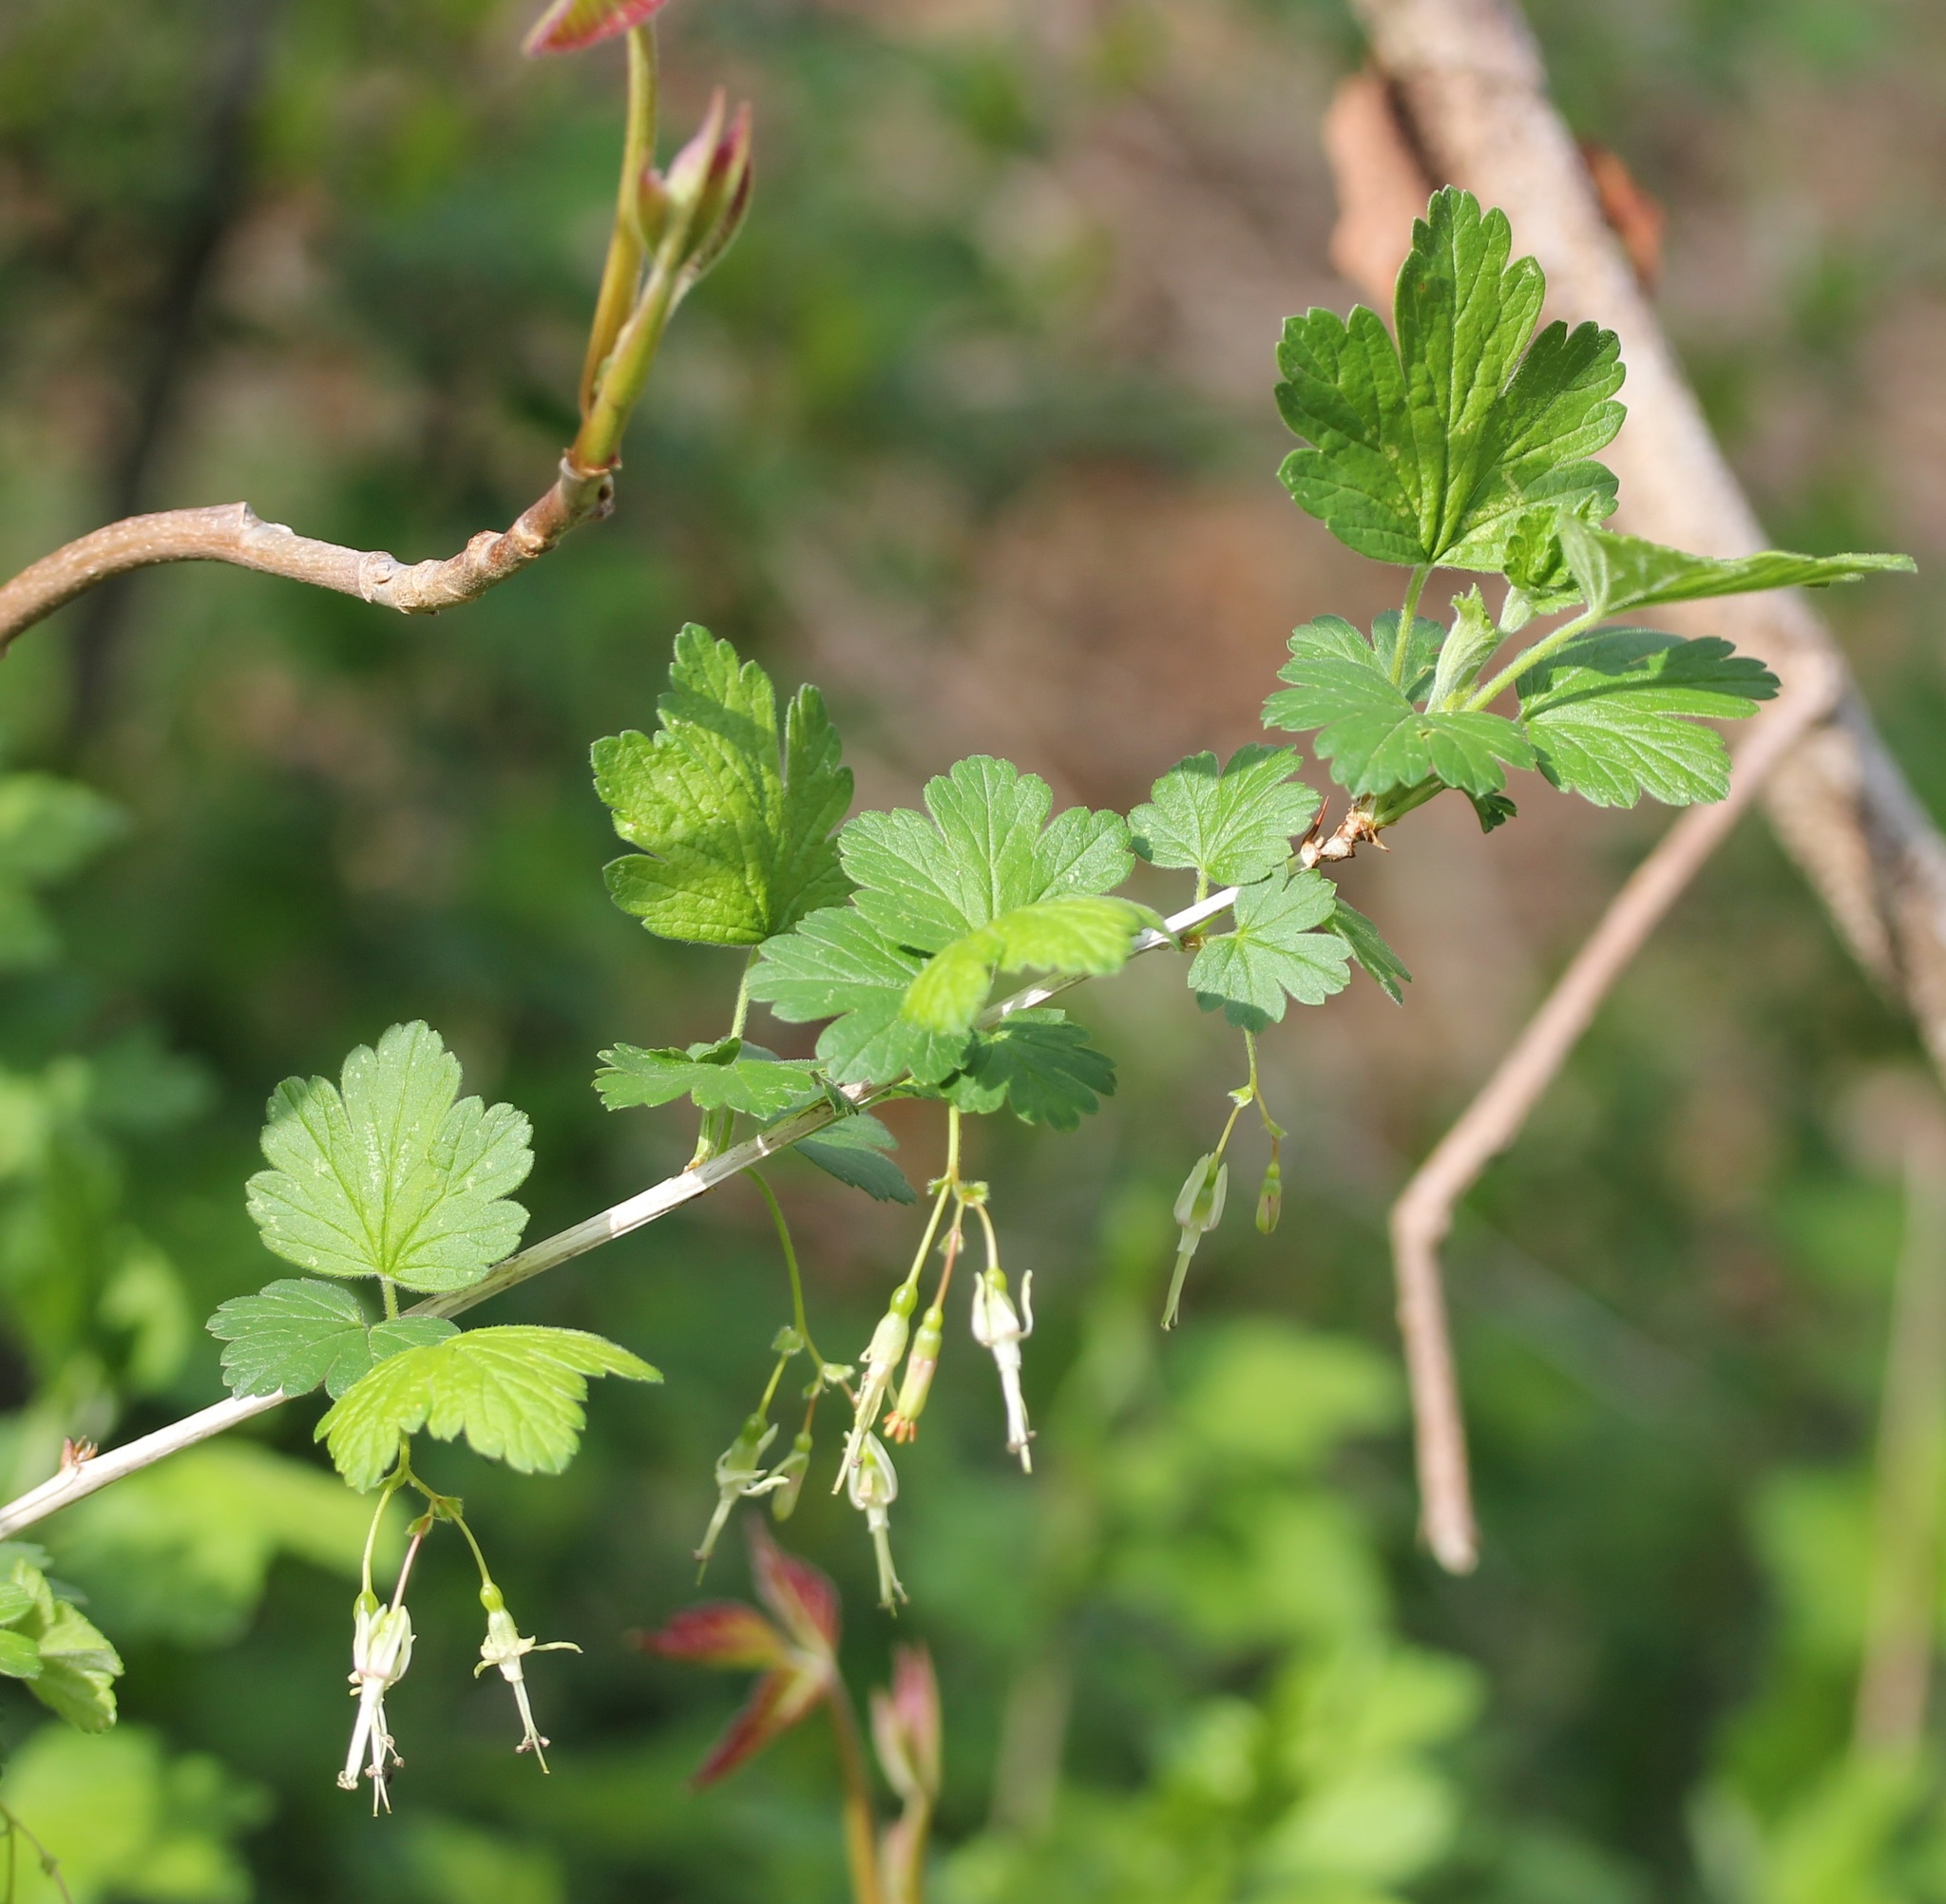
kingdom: Plantae
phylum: Tracheophyta
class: Magnoliopsida
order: Saxifragales
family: Grossulariaceae
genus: Ribes
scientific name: Ribes missouriense
